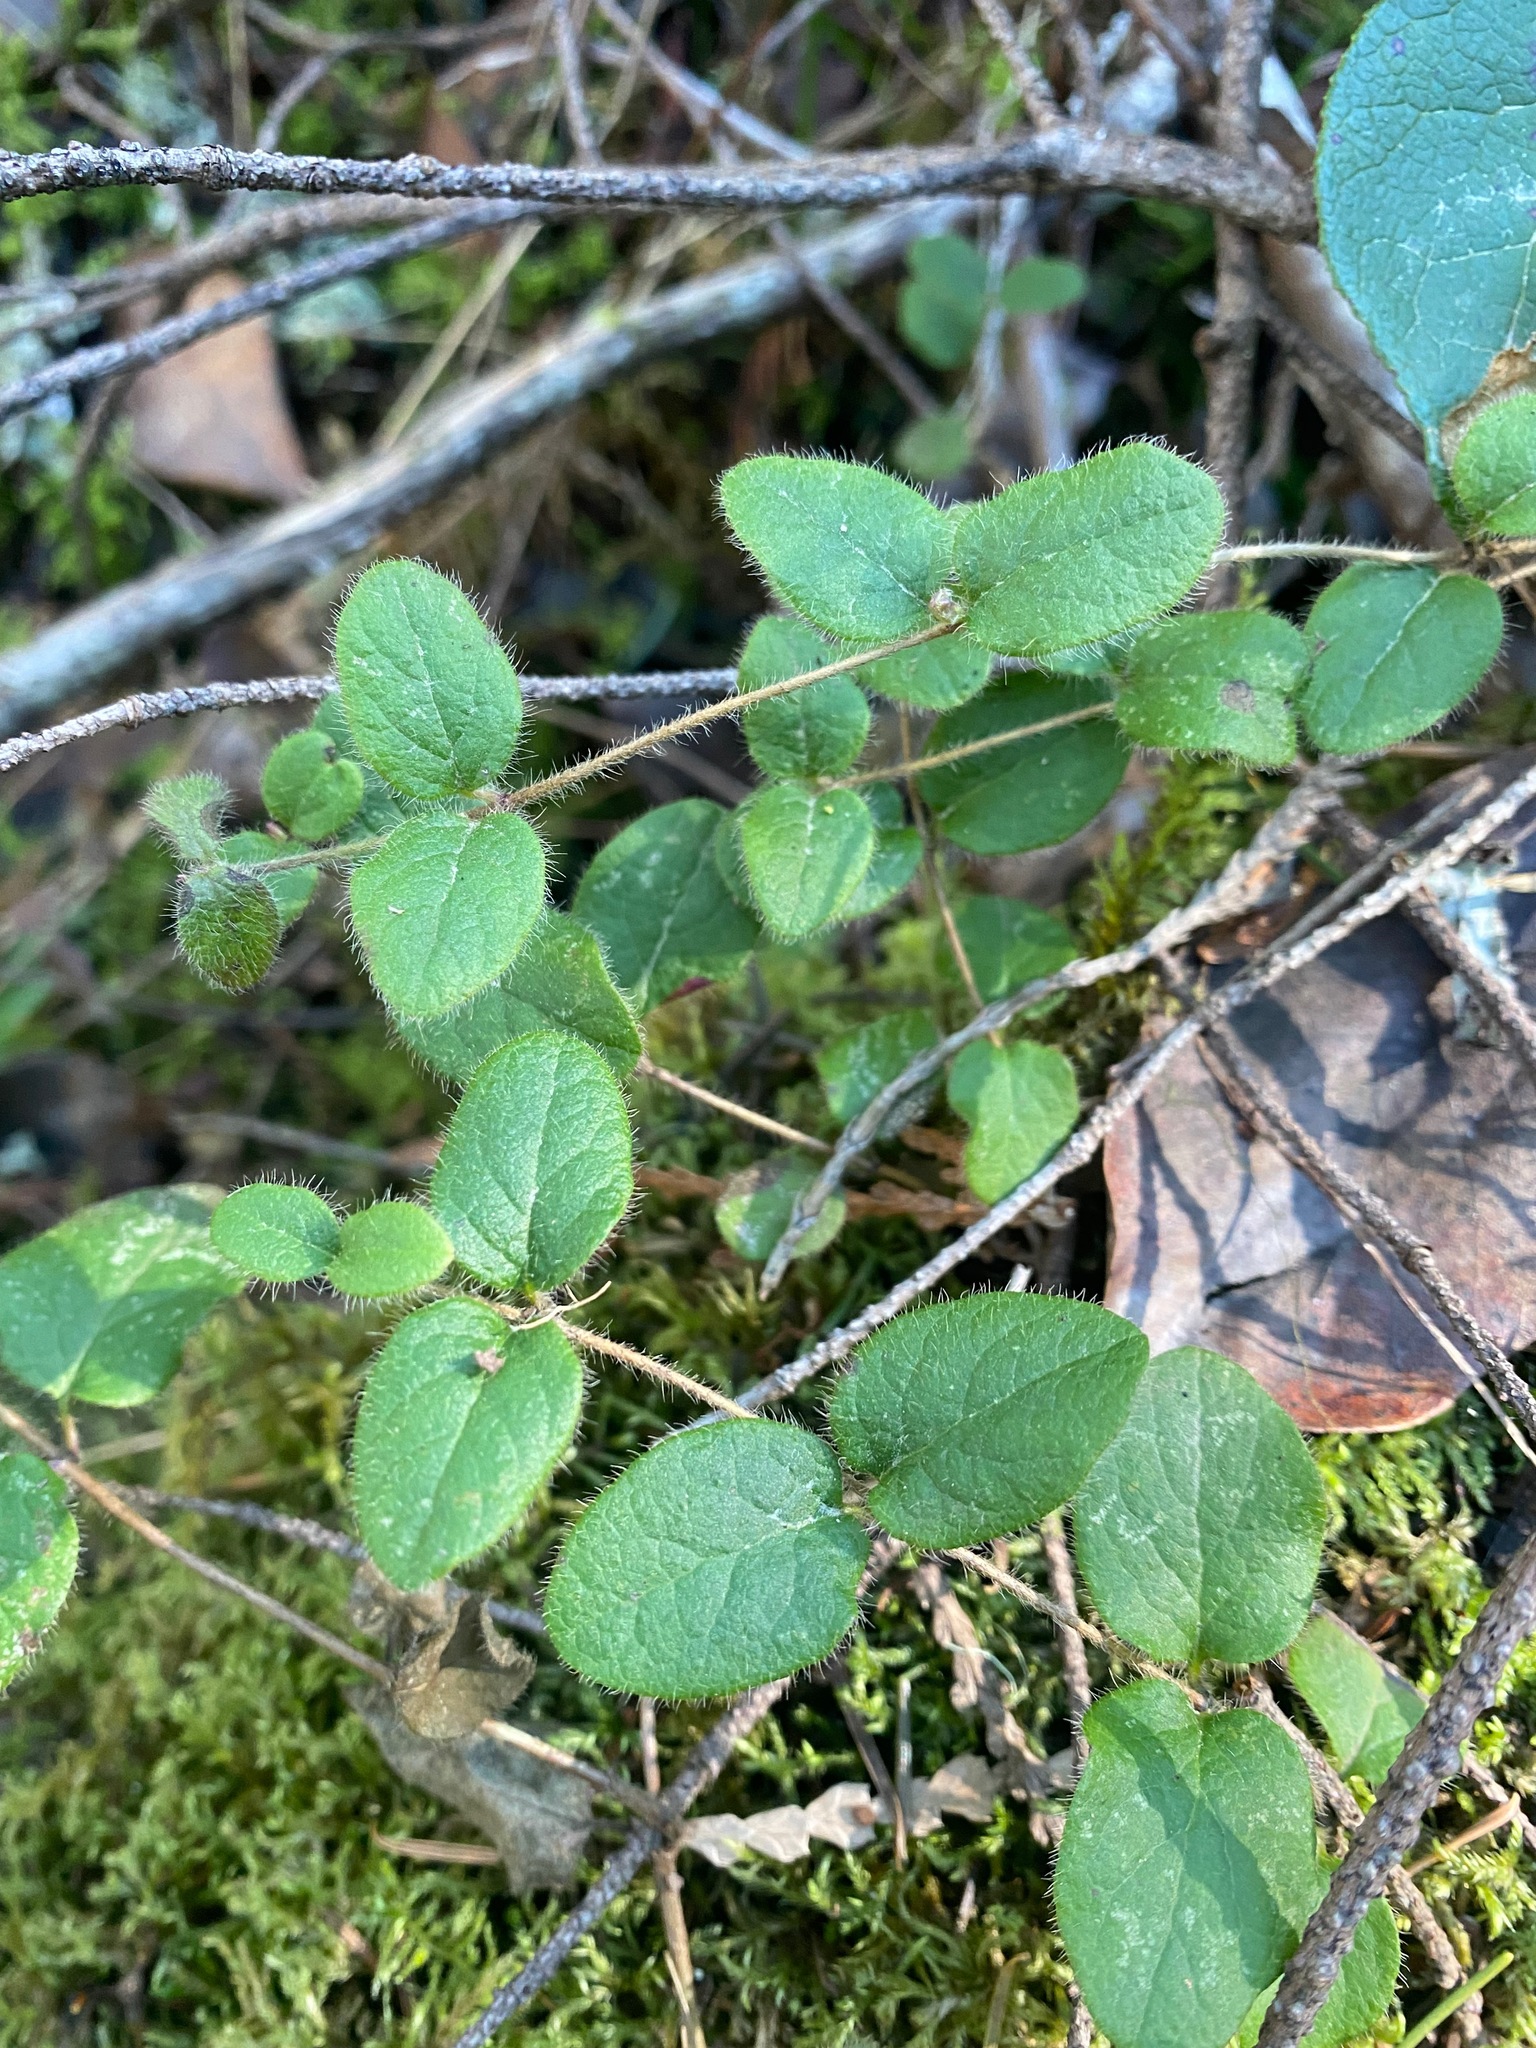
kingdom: Plantae
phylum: Tracheophyta
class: Magnoliopsida
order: Dipsacales
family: Caprifoliaceae
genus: Lonicera
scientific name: Lonicera hispidula
